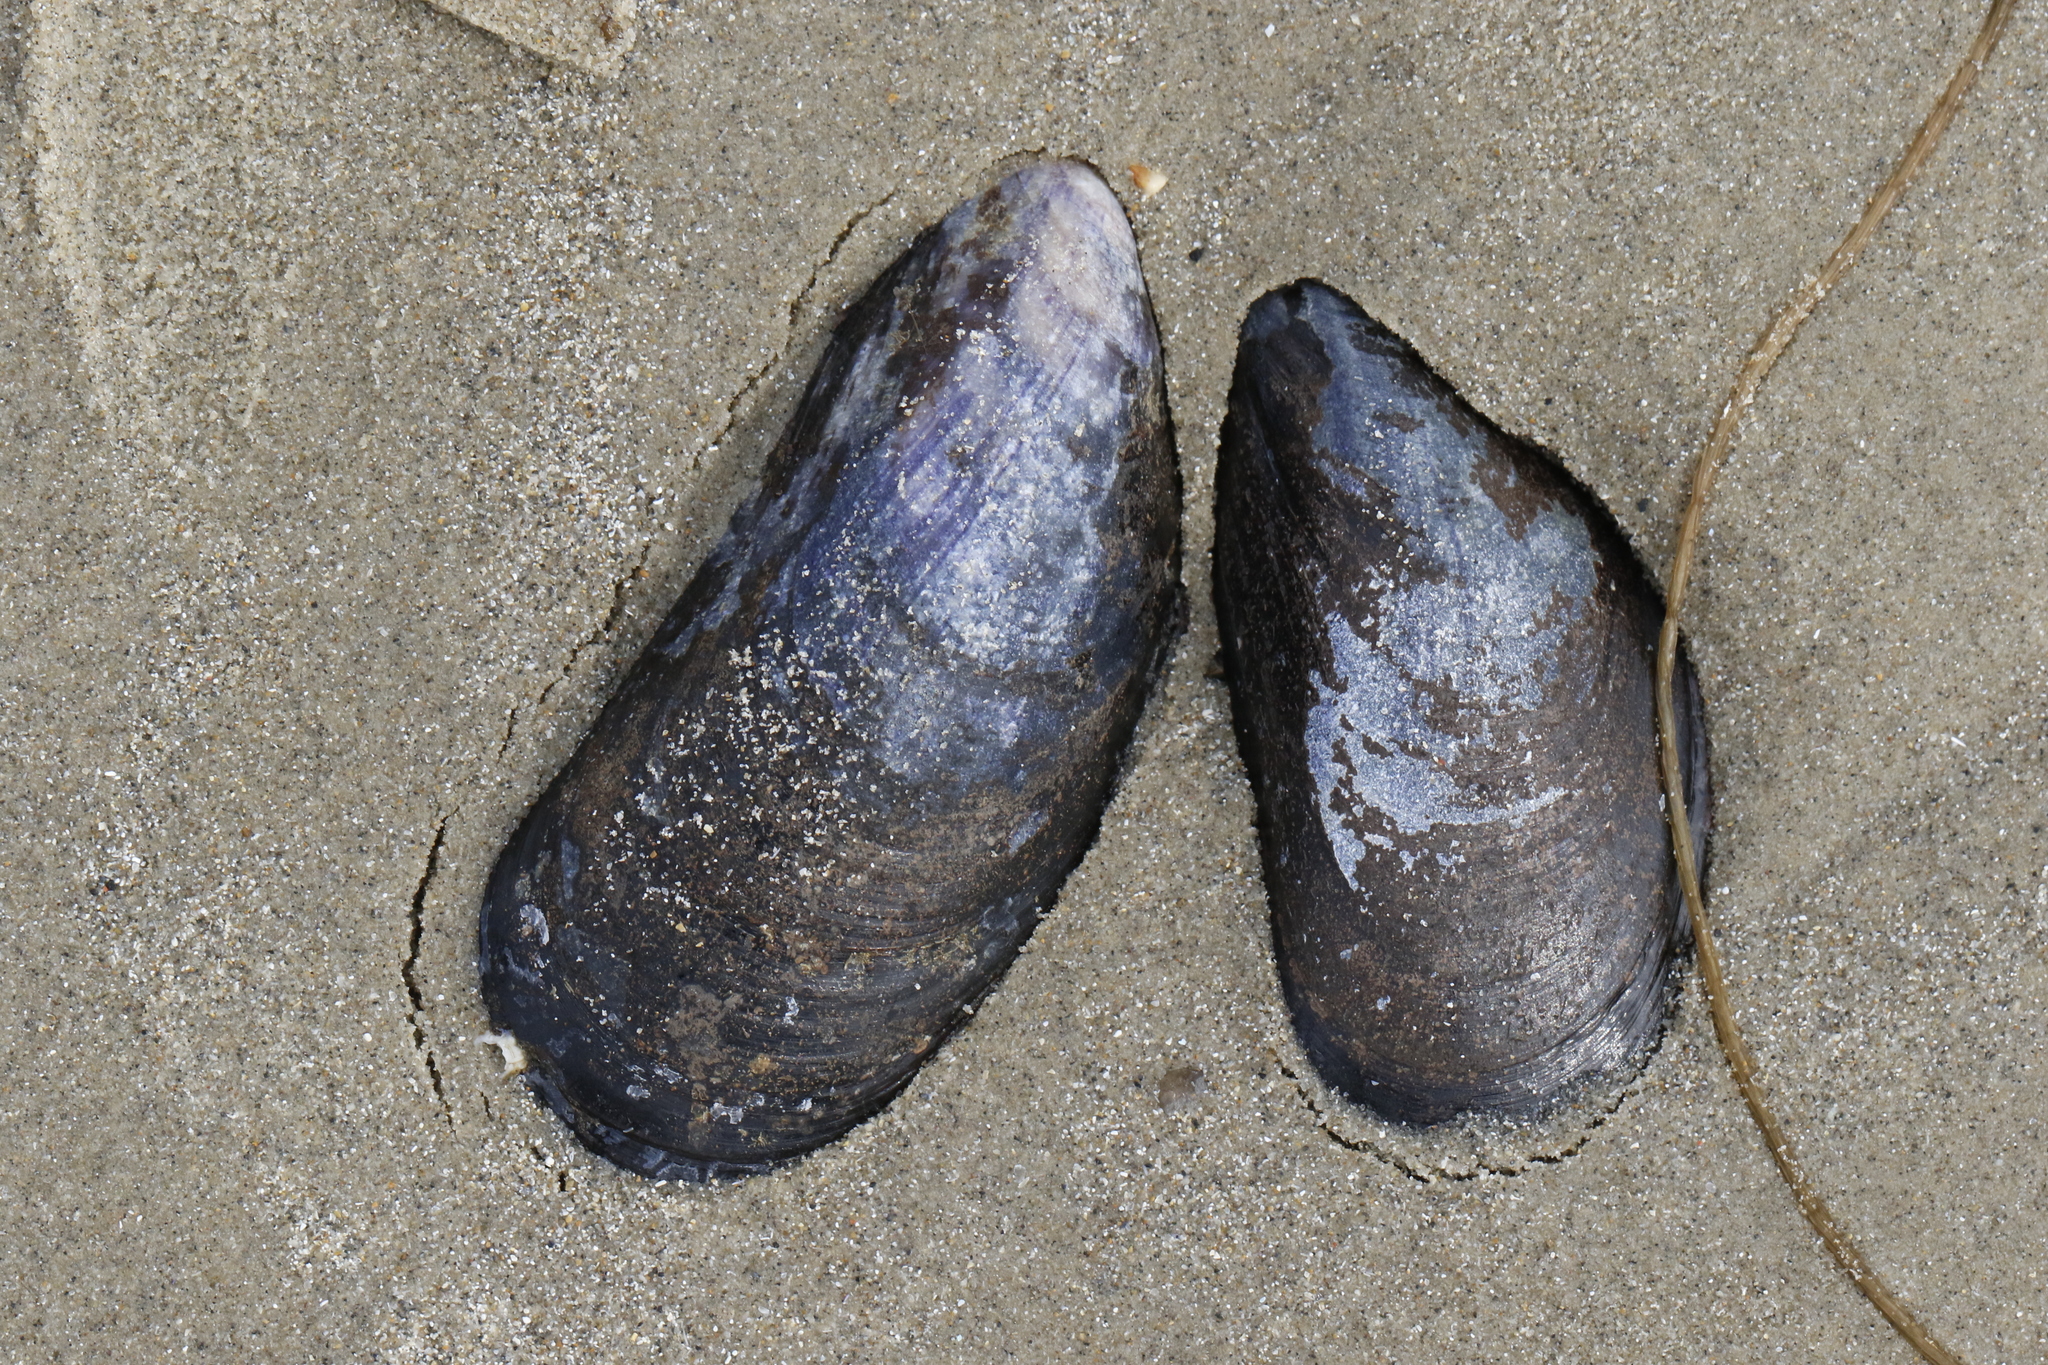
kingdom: Animalia
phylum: Mollusca
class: Bivalvia
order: Mytilida
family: Mytilidae
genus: Mytilus
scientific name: Mytilus edulis
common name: Blue mussel
